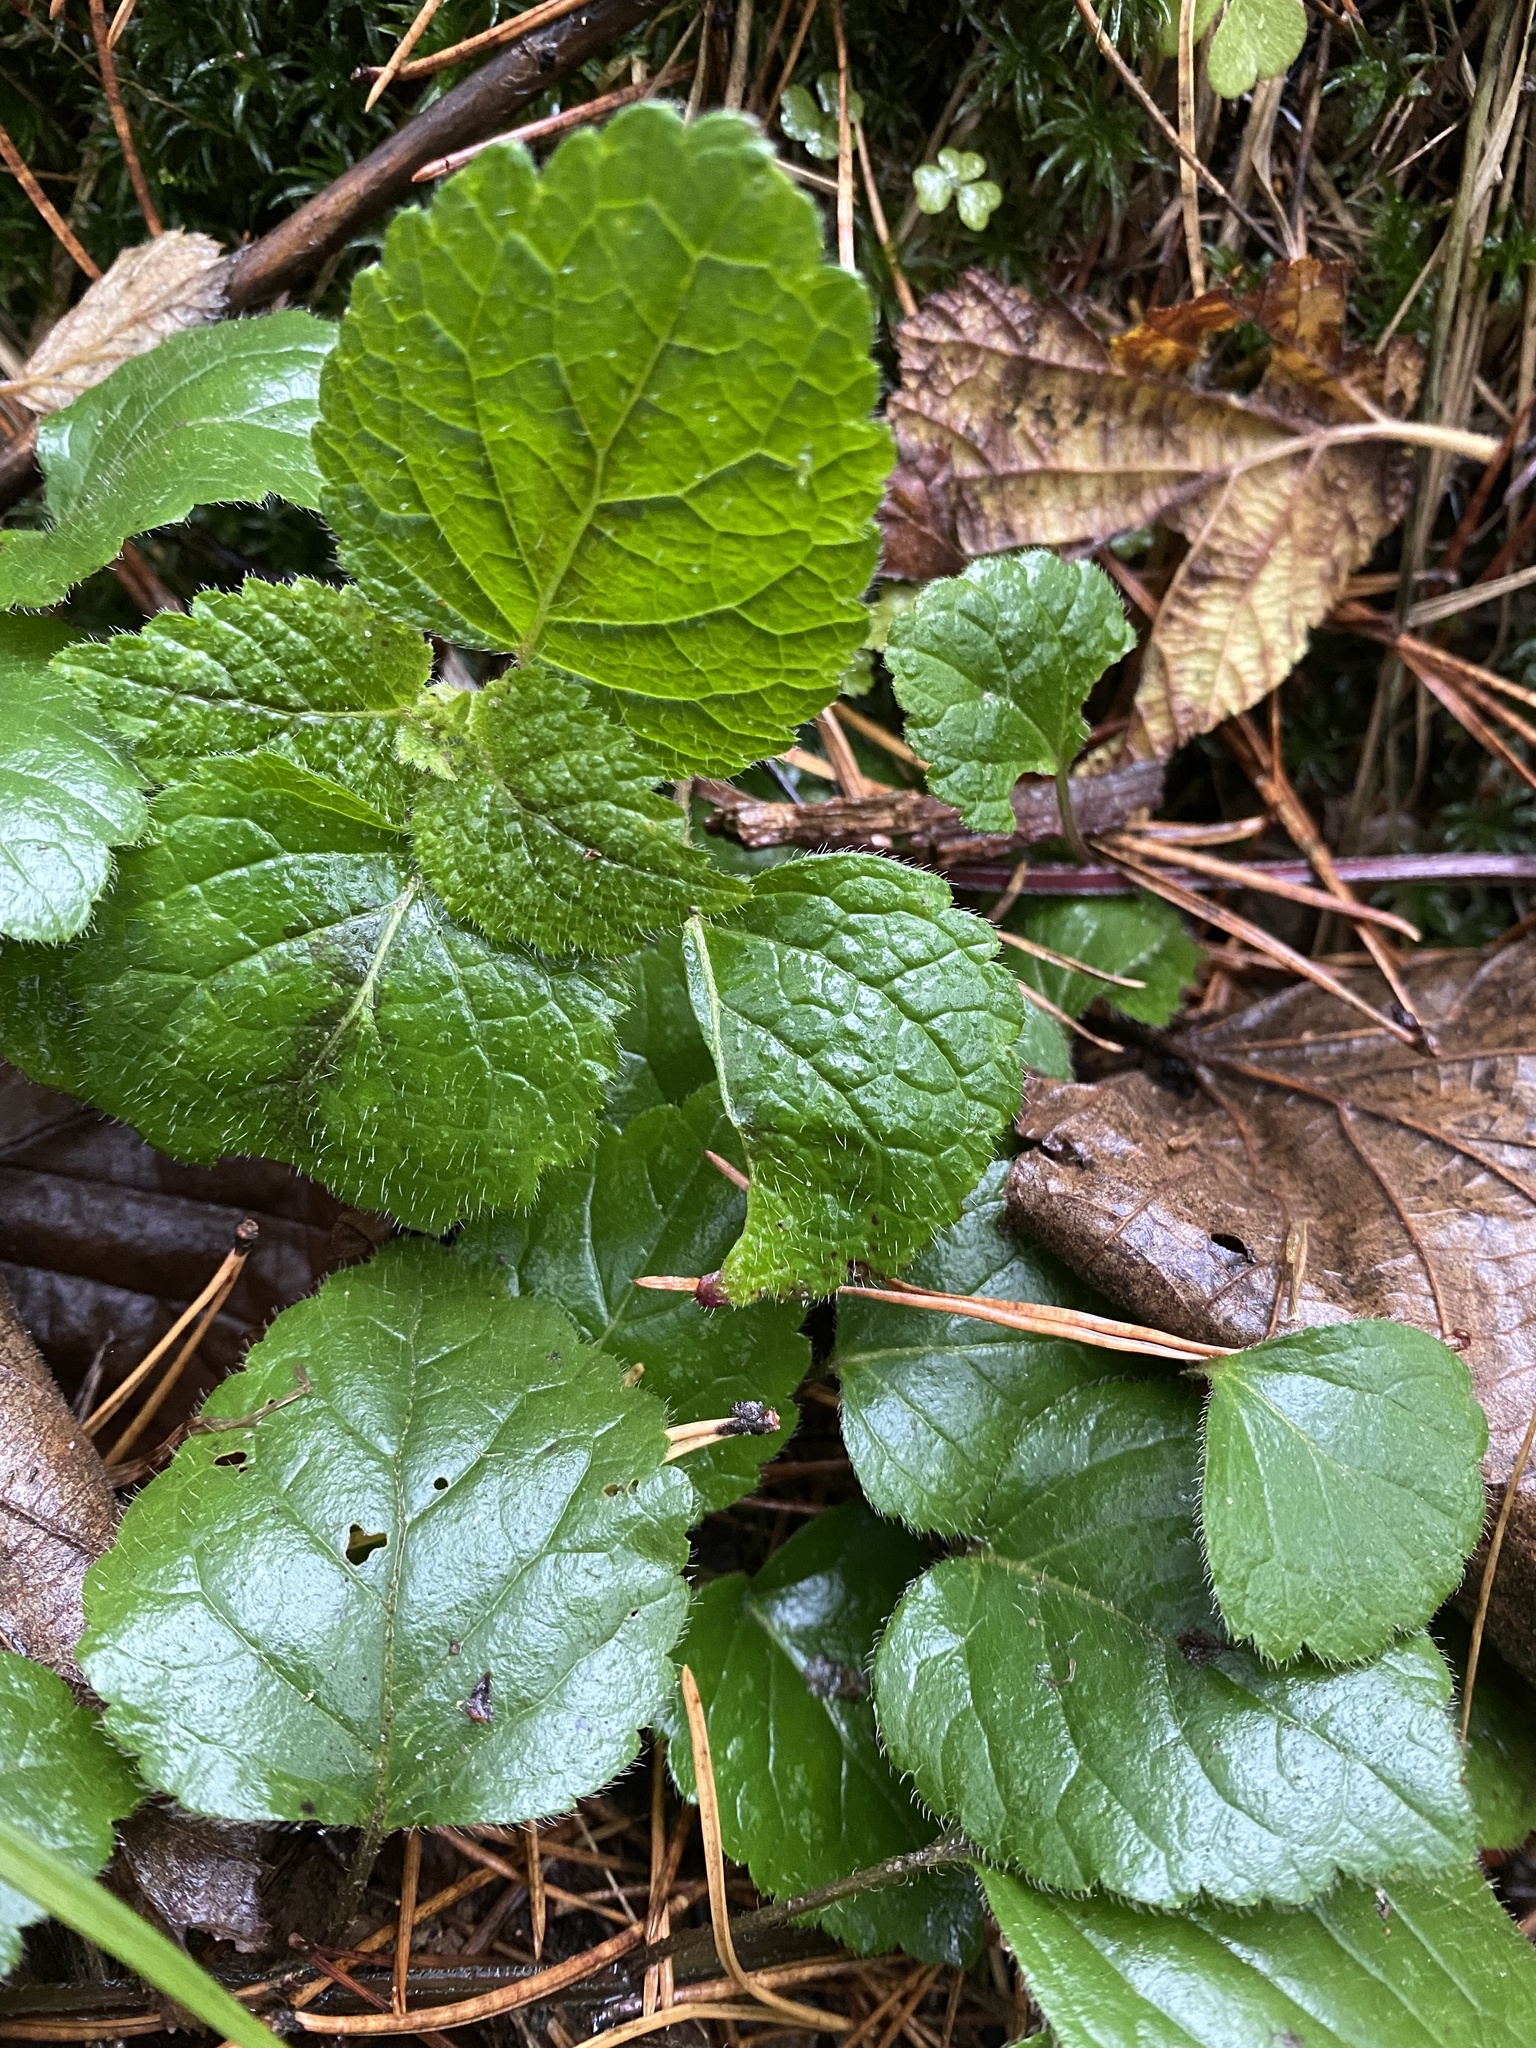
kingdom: Plantae
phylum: Tracheophyta
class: Magnoliopsida
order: Lamiales
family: Lamiaceae
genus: Lamium
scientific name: Lamium galeobdolon
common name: Yellow archangel
